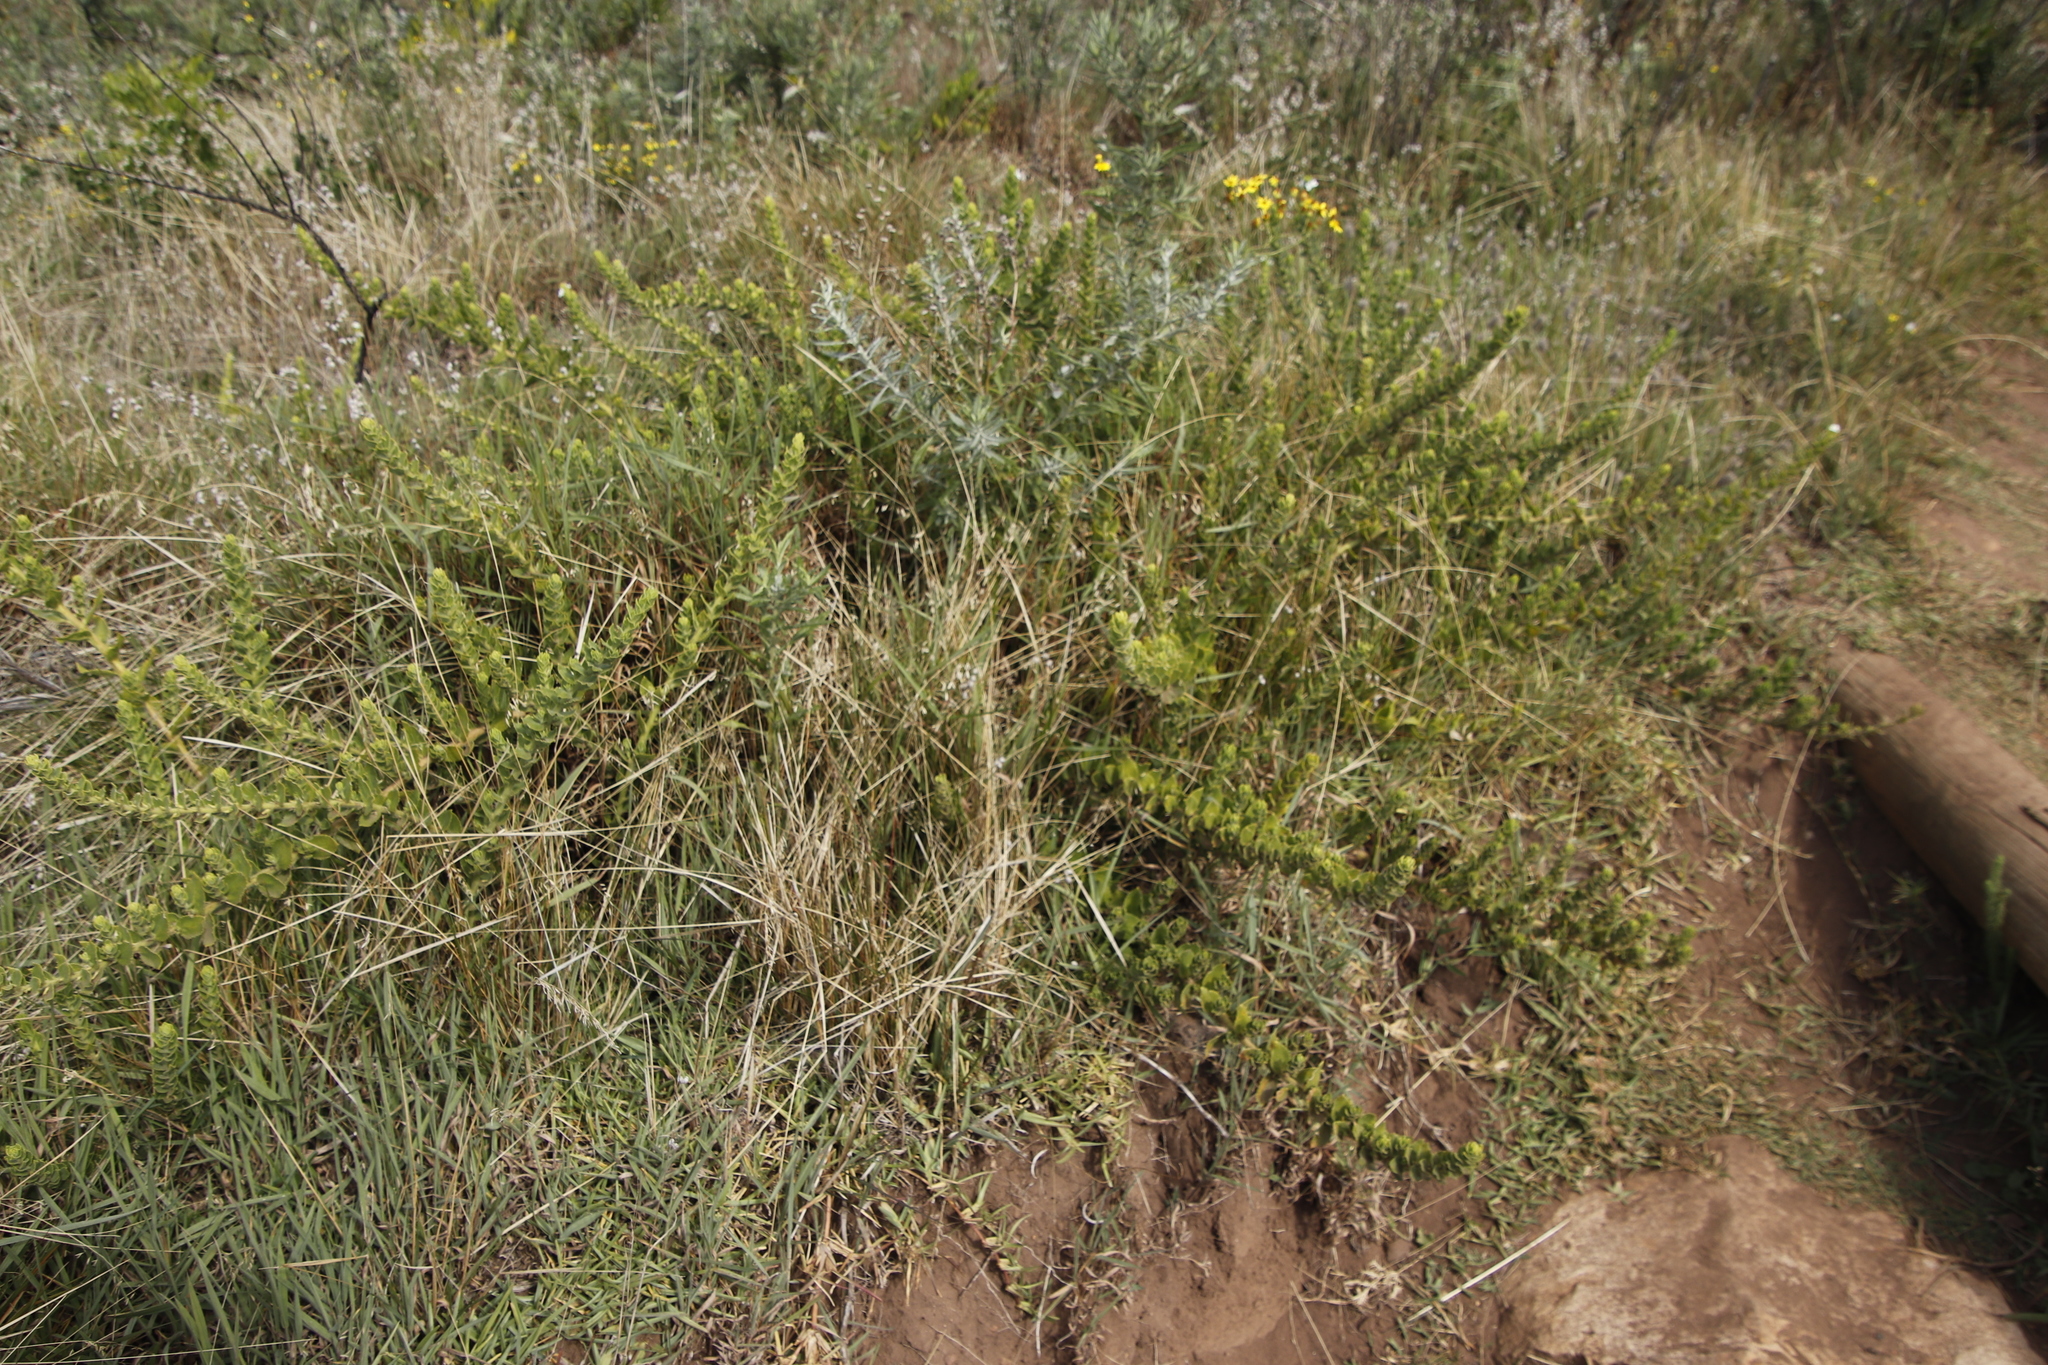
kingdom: Plantae
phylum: Tracheophyta
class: Magnoliopsida
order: Lamiales
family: Scrophulariaceae
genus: Oftia
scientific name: Oftia africana
